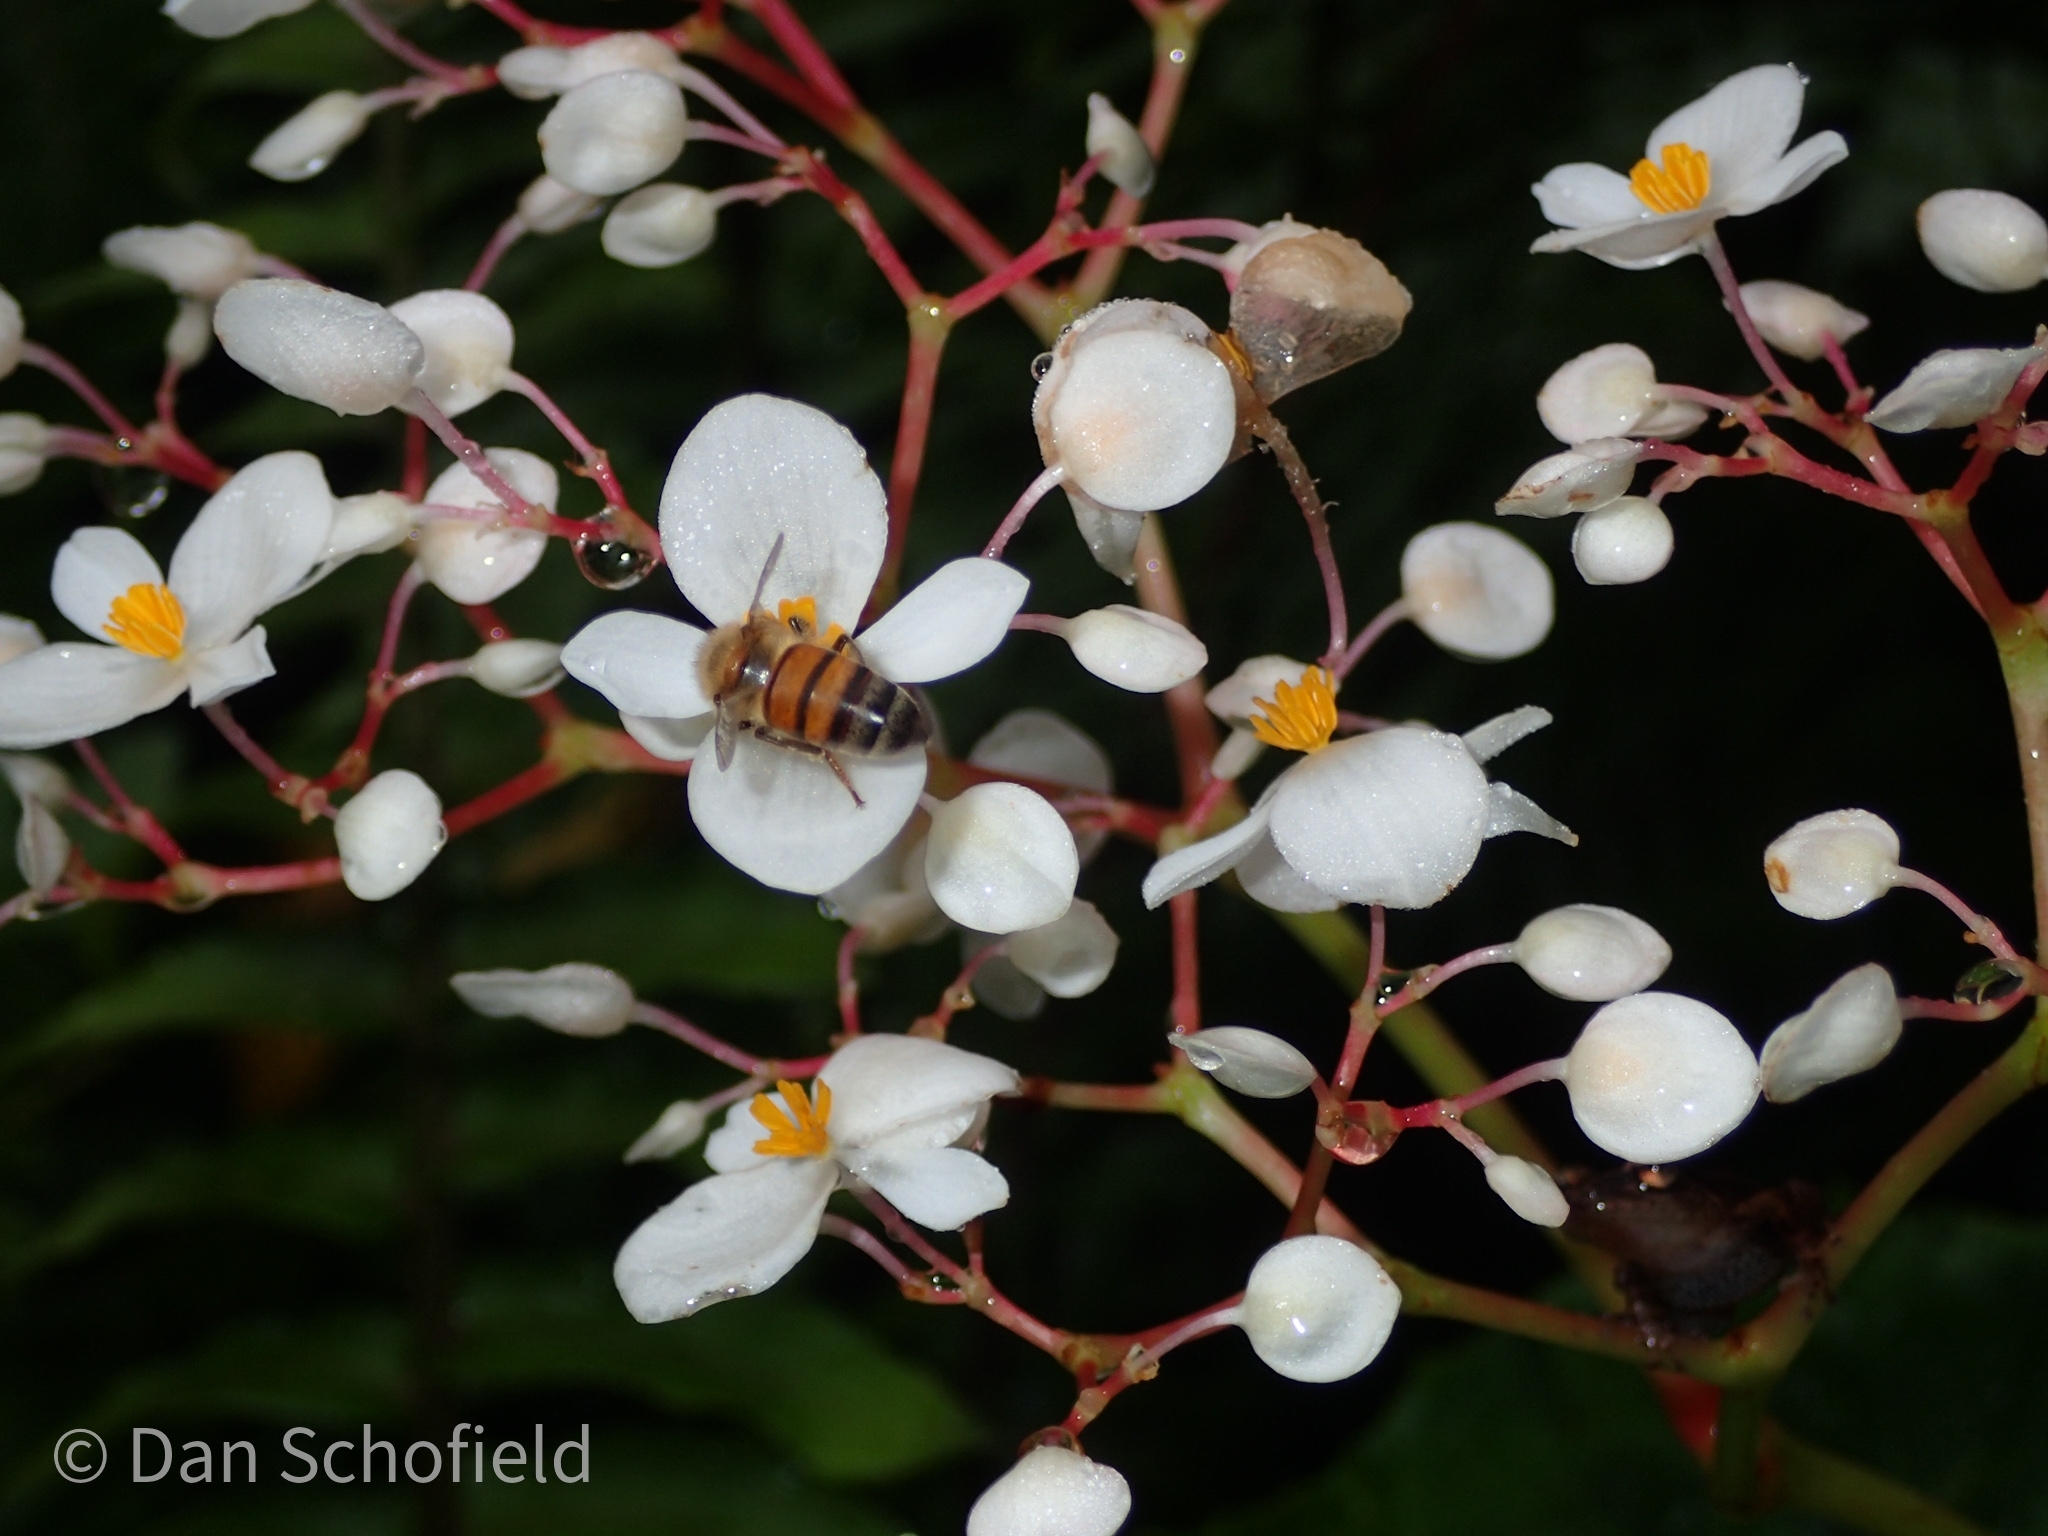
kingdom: Plantae
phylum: Tracheophyta
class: Magnoliopsida
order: Cucurbitales
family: Begoniaceae
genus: Begonia
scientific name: Begonia retusa
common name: Begonia
